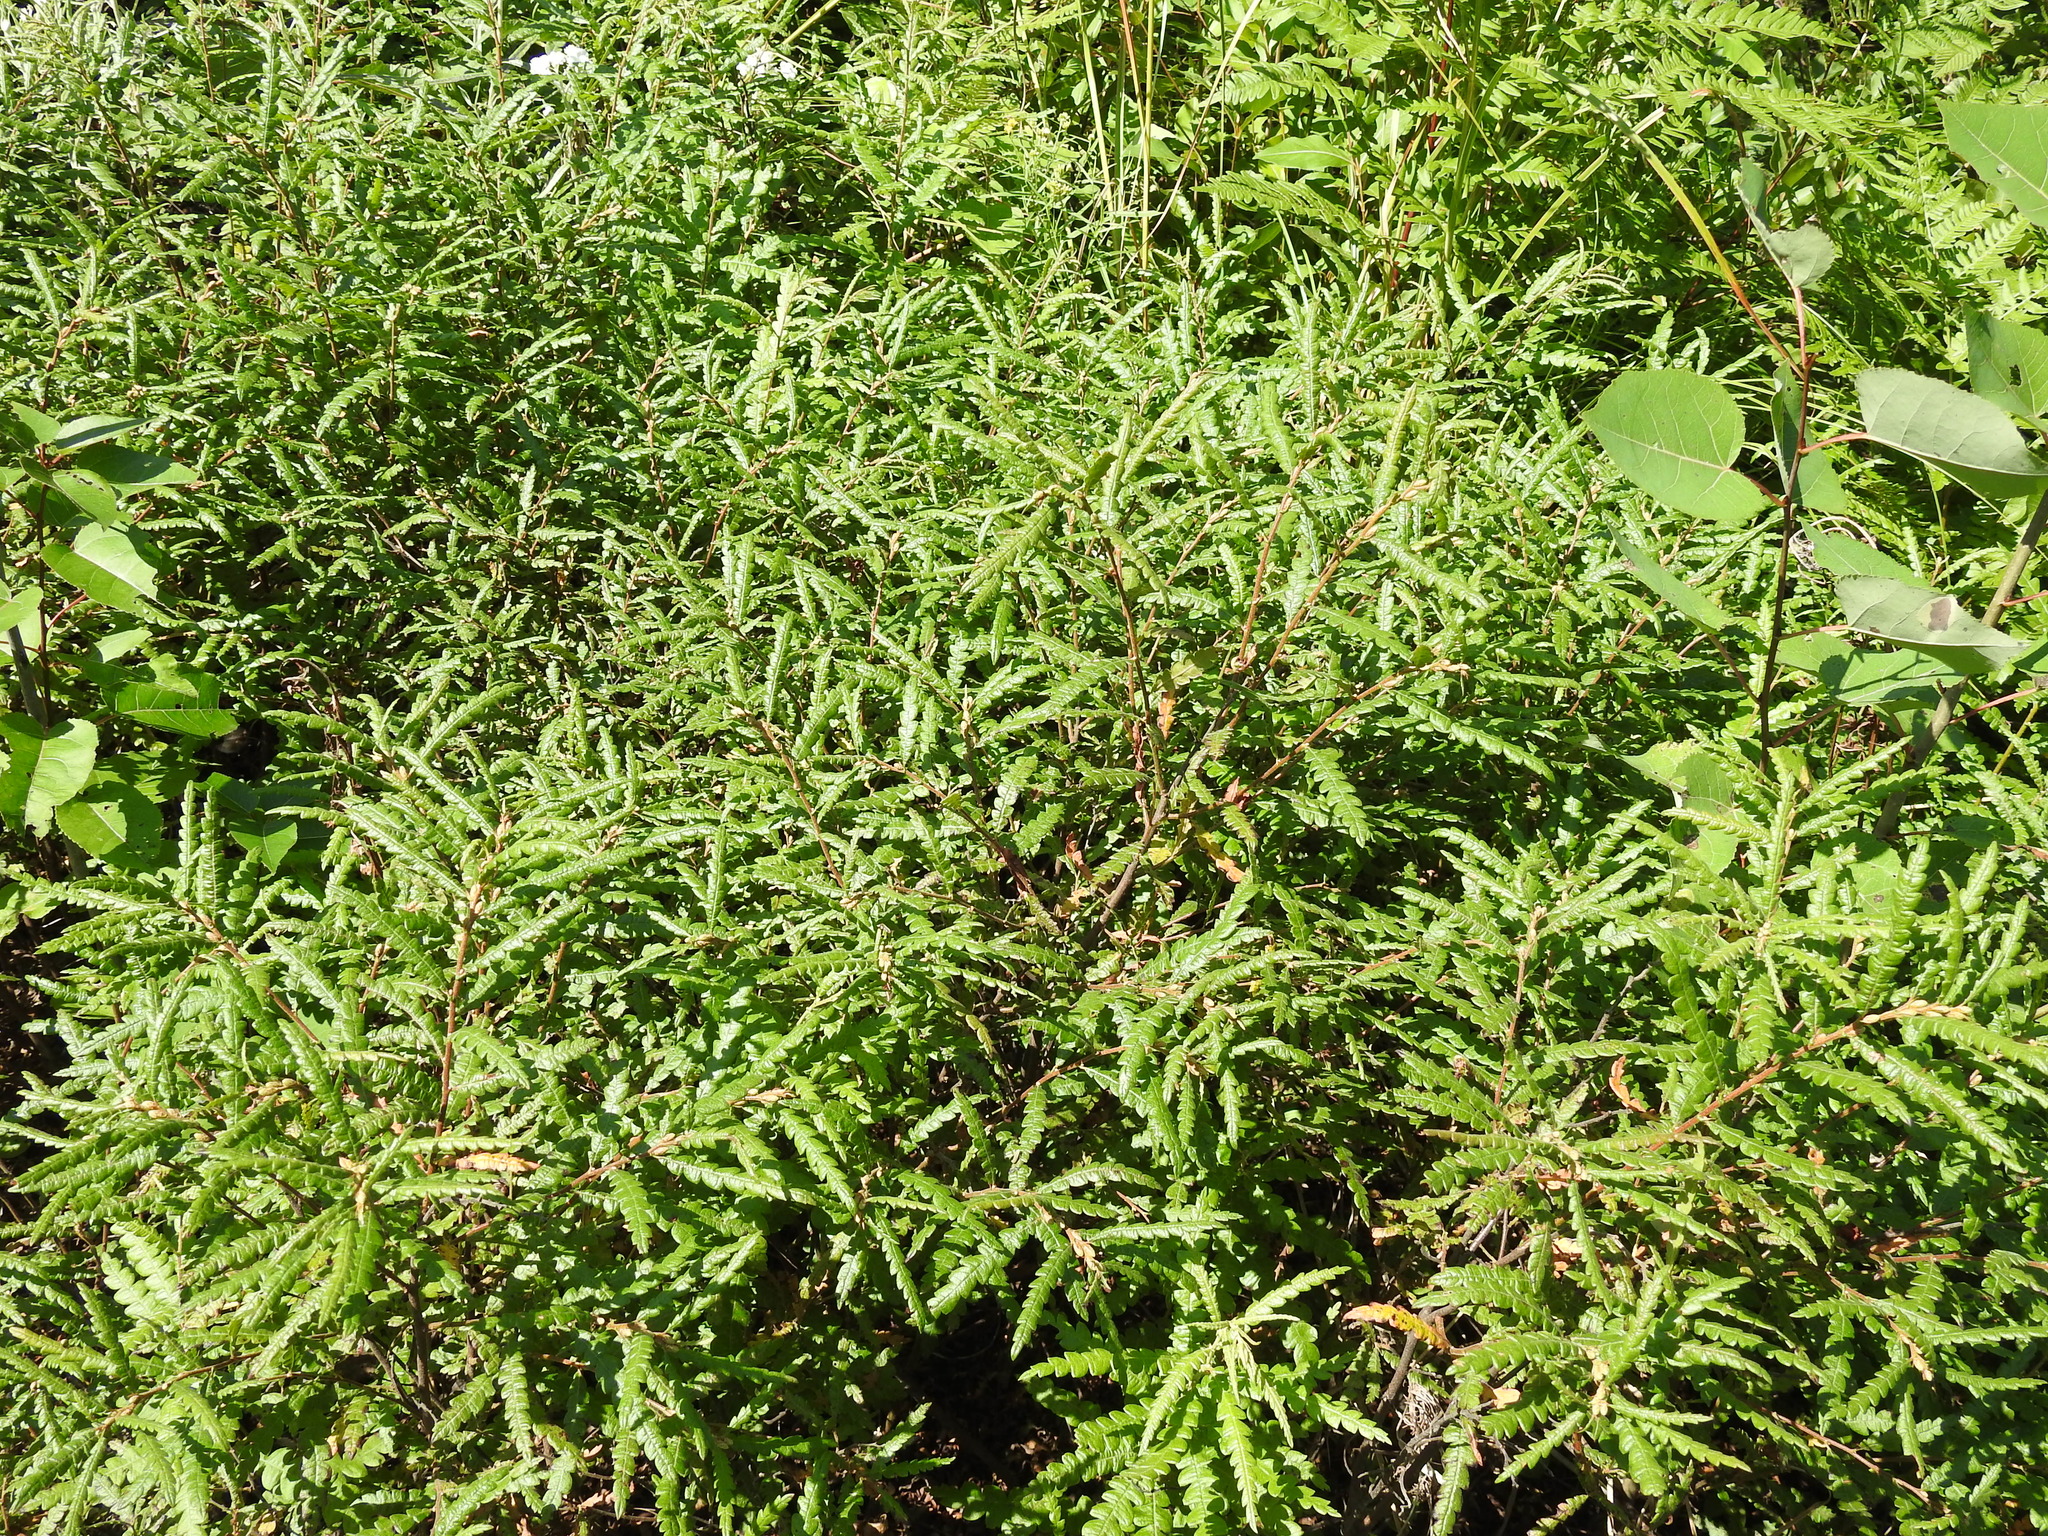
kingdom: Plantae
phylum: Tracheophyta
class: Magnoliopsida
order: Fagales
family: Myricaceae
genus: Comptonia
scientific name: Comptonia peregrina
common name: Sweet-fern
